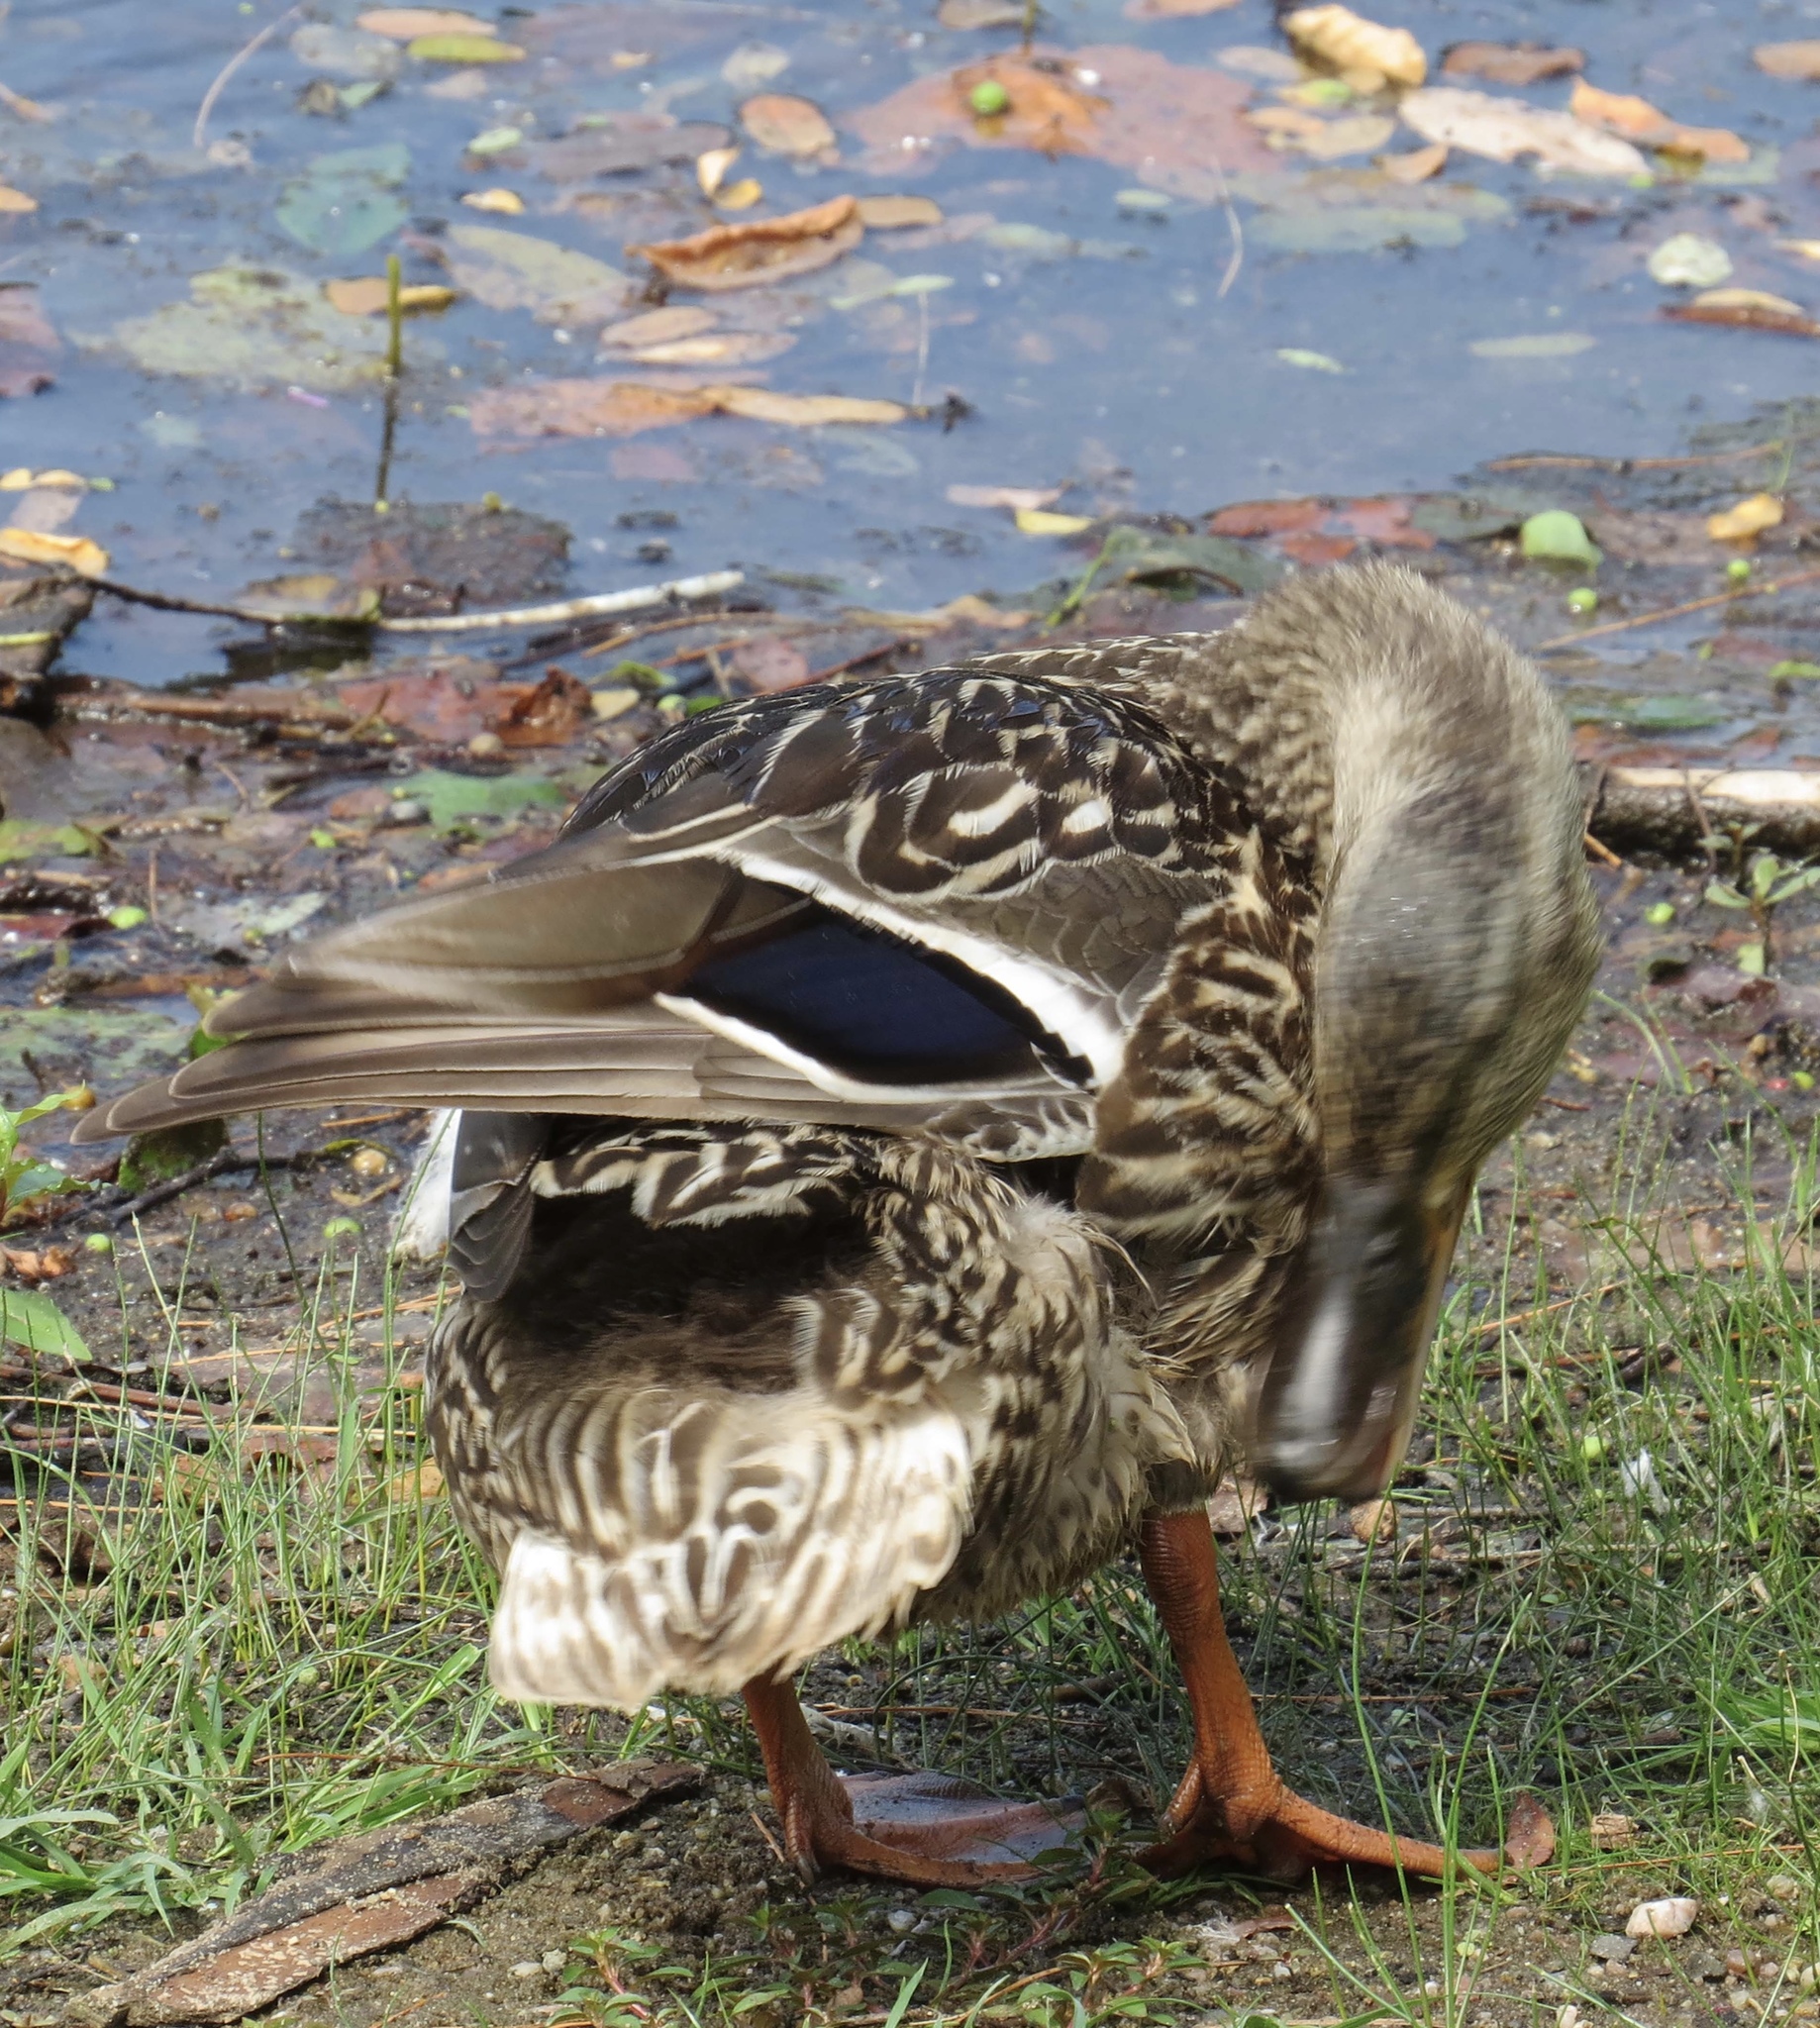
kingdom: Animalia
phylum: Chordata
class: Aves
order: Anseriformes
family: Anatidae
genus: Anas
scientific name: Anas platyrhynchos
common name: Mallard
